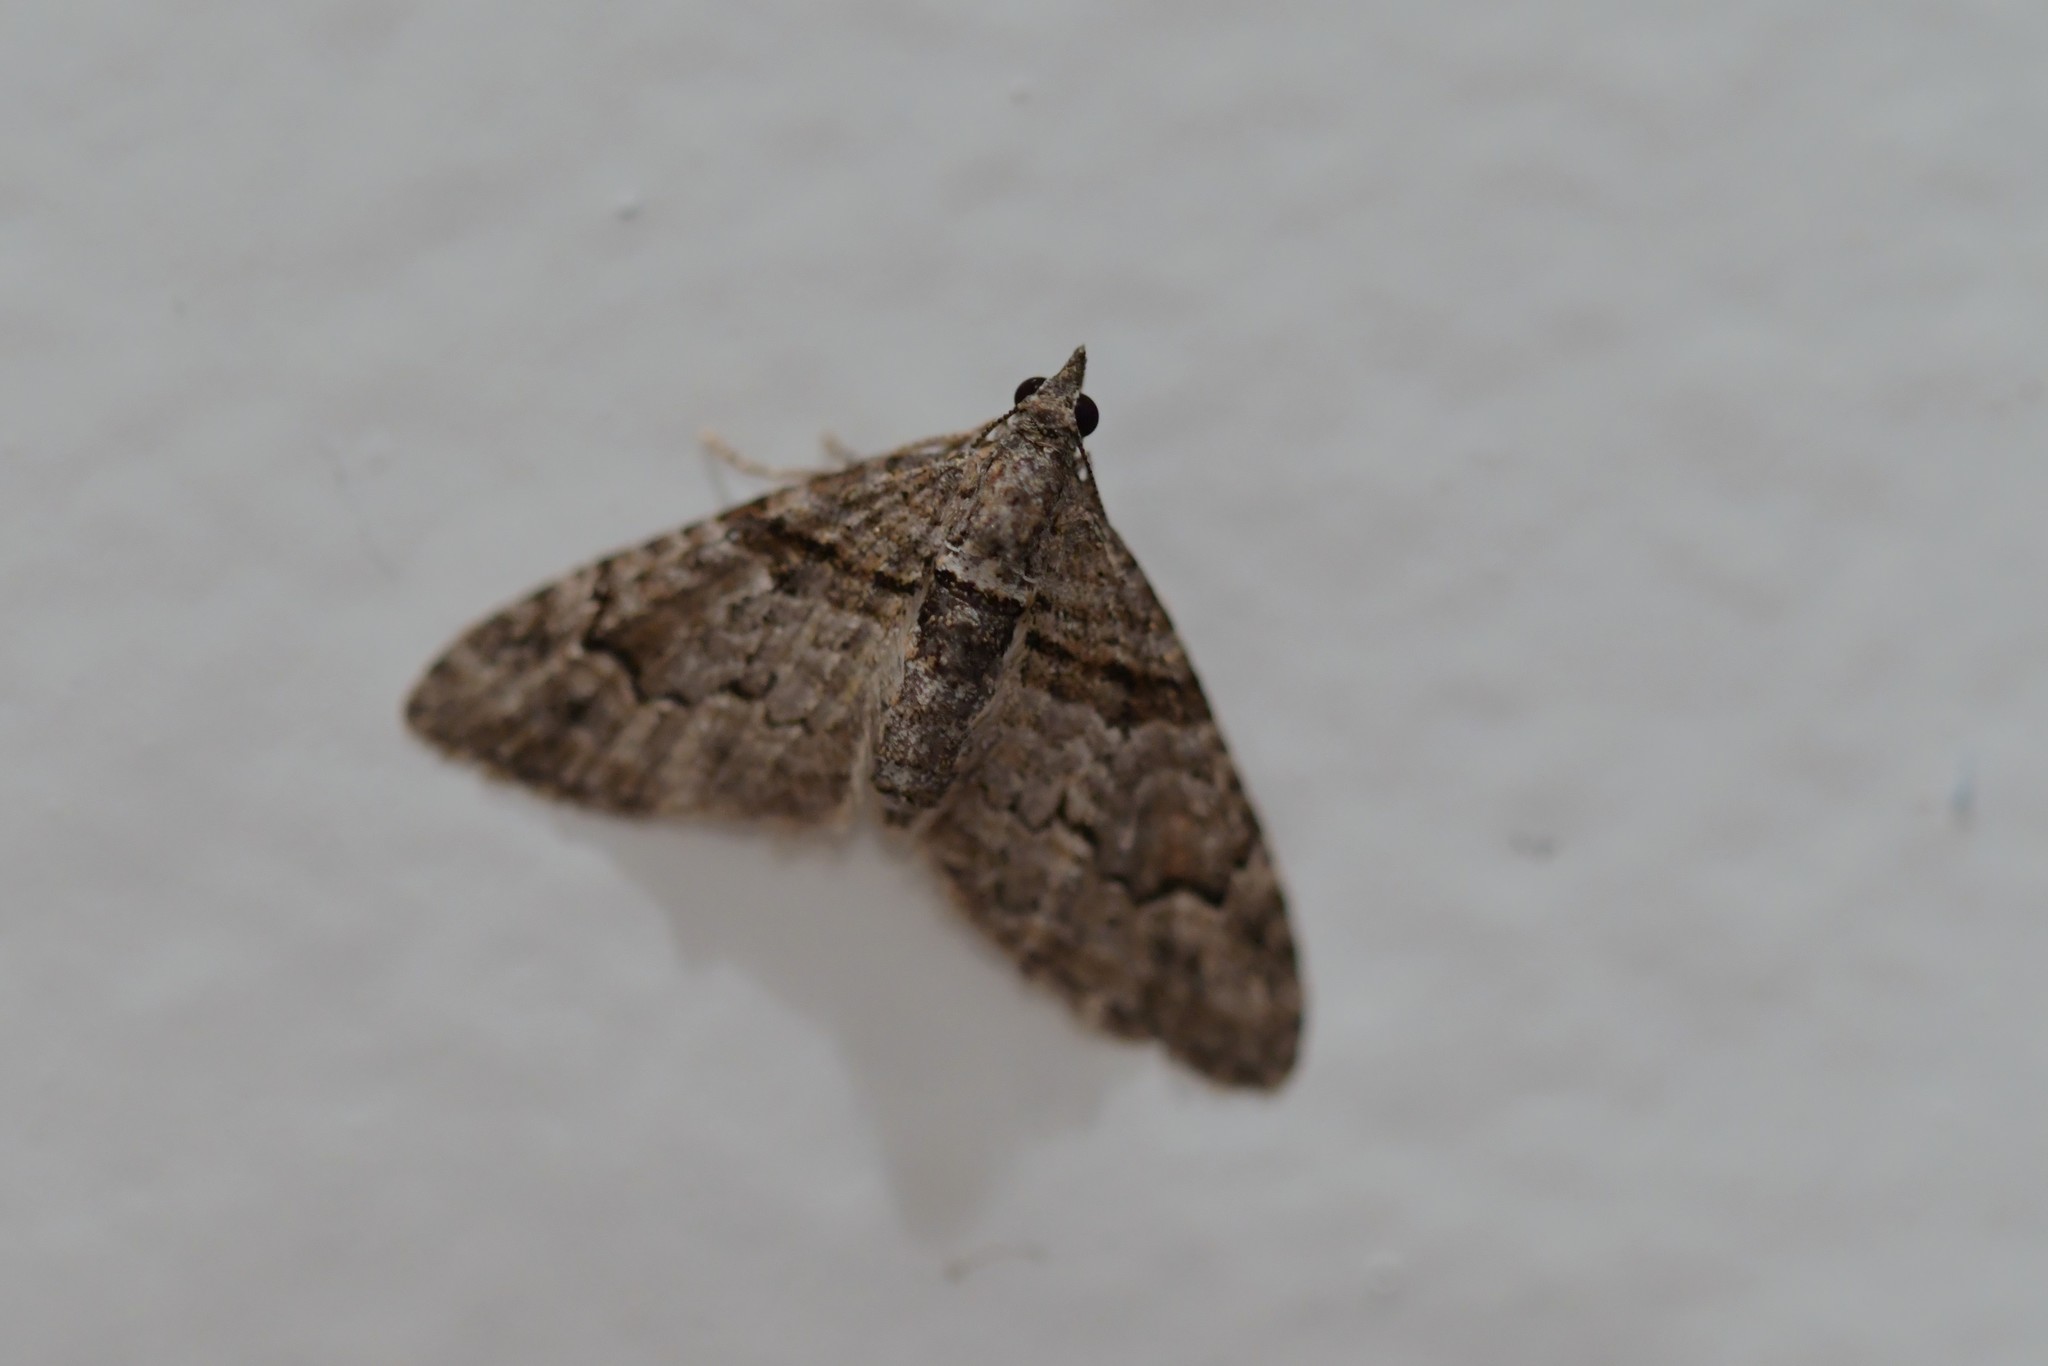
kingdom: Animalia
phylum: Arthropoda
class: Insecta
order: Lepidoptera
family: Geometridae
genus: Phrissogonus
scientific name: Phrissogonus laticostata
